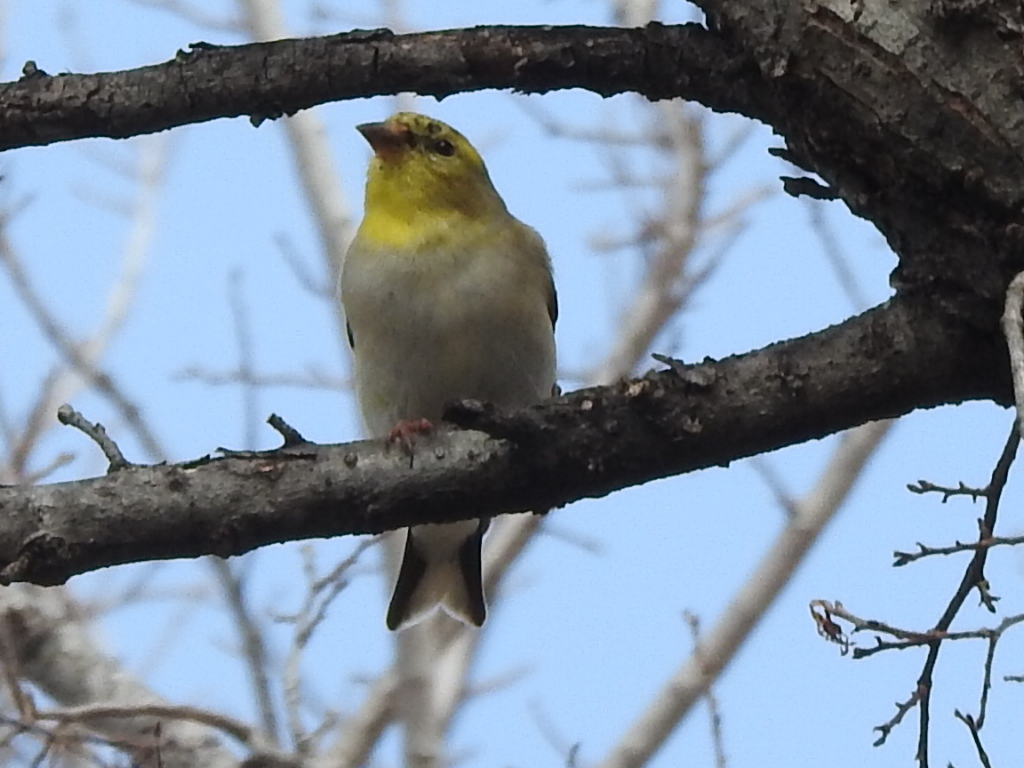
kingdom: Animalia
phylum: Chordata
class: Aves
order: Passeriformes
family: Fringillidae
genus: Spinus
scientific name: Spinus tristis
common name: American goldfinch
